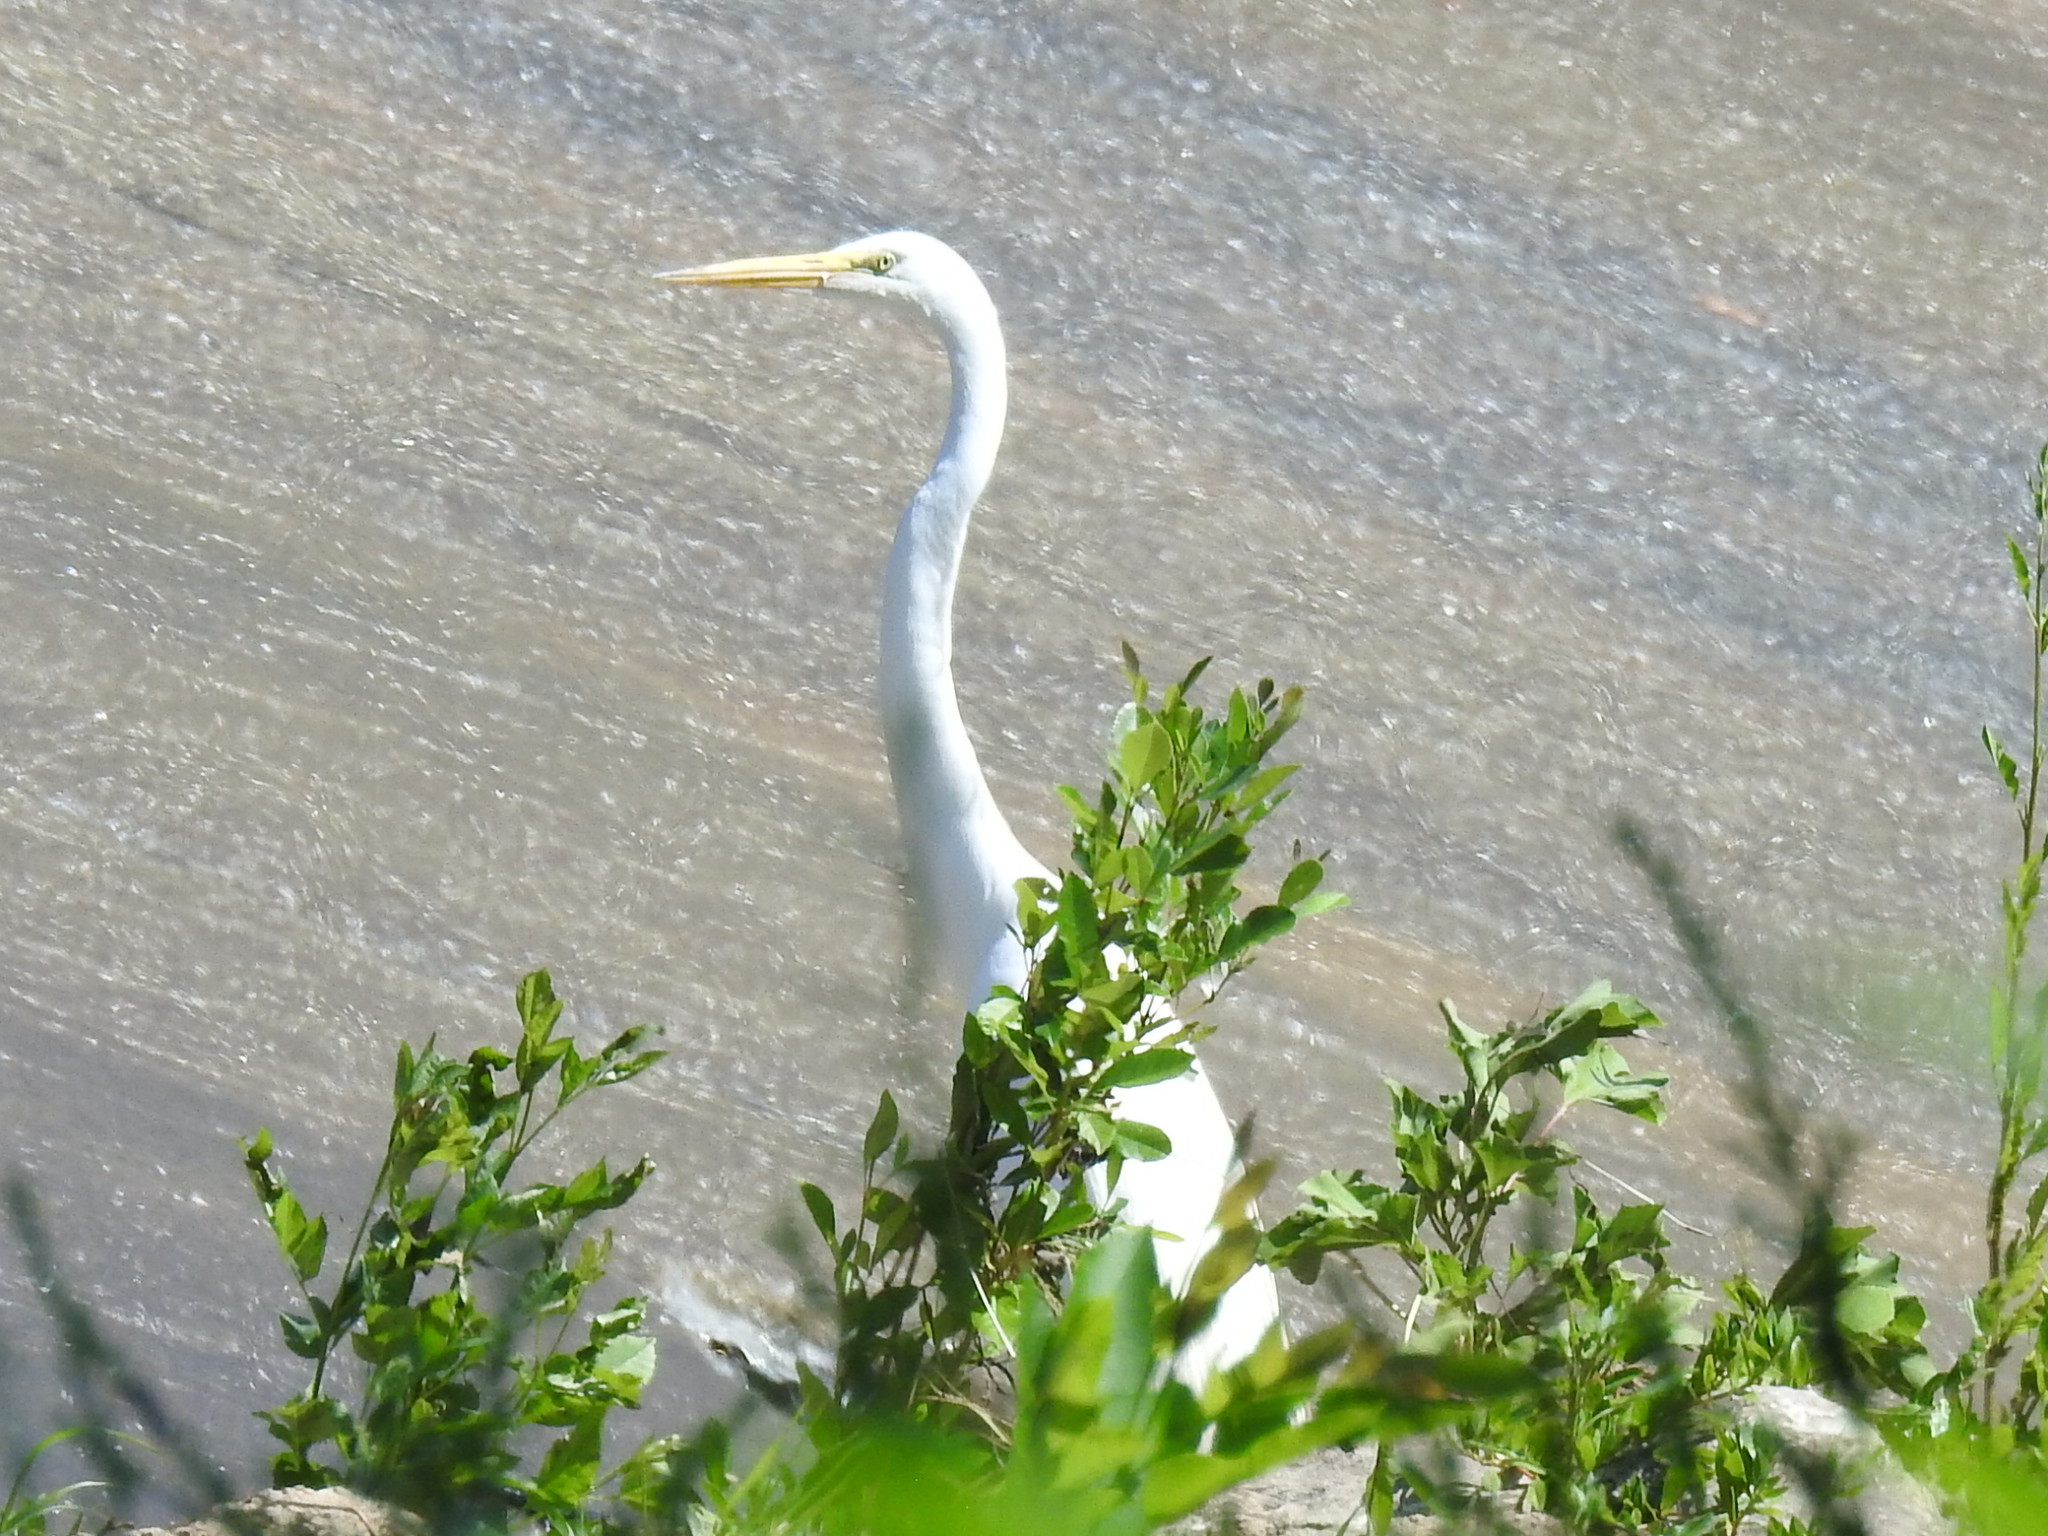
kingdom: Animalia
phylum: Chordata
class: Aves
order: Pelecaniformes
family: Ardeidae
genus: Ardea
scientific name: Ardea alba
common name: Great egret
